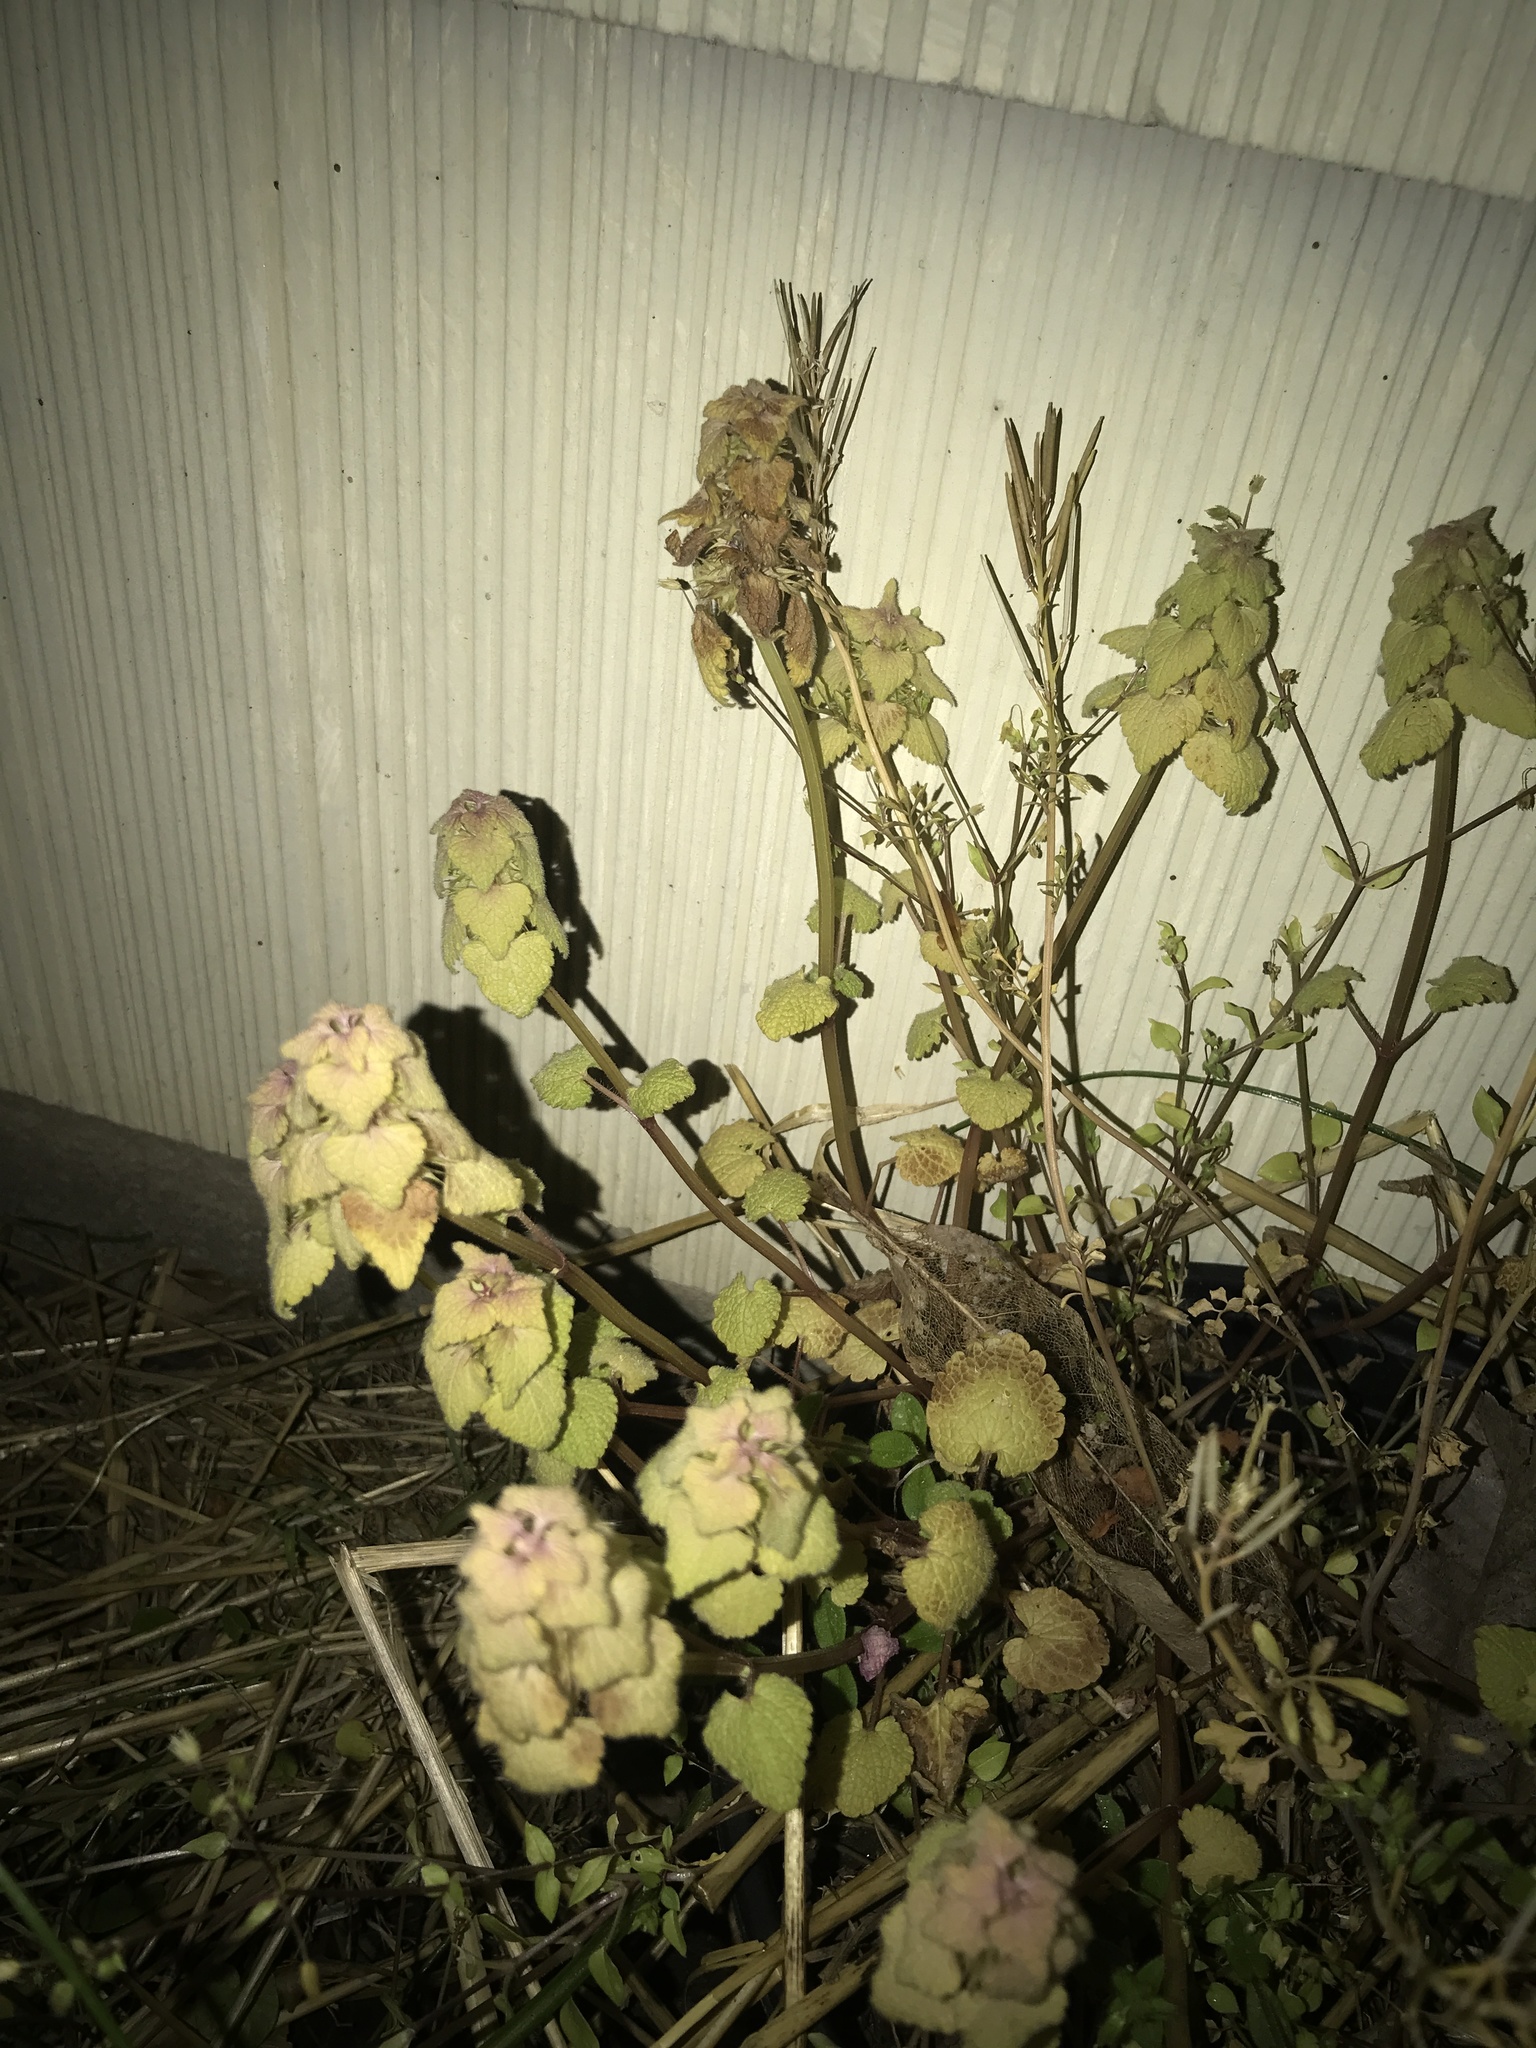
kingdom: Plantae
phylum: Tracheophyta
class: Magnoliopsida
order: Lamiales
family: Lamiaceae
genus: Lamium
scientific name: Lamium purpureum
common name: Red dead-nettle
